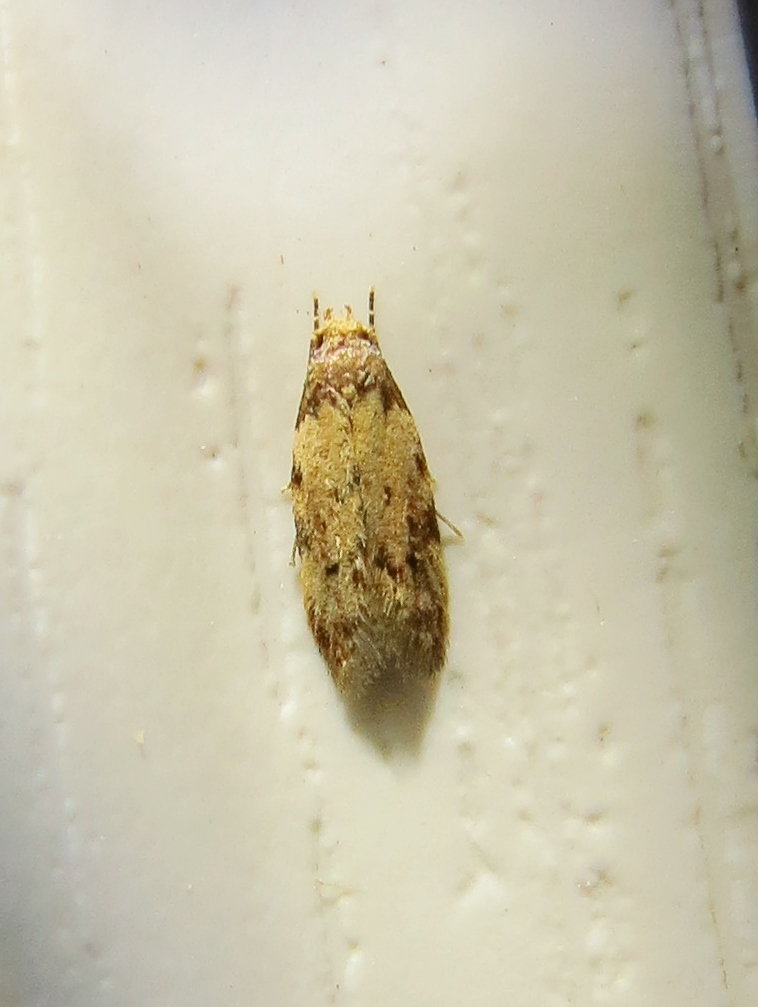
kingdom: Animalia
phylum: Arthropoda
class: Insecta
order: Lepidoptera
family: Autostichidae
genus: Taygete
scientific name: Taygete attributella
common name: Triangle-marked twirler moth
